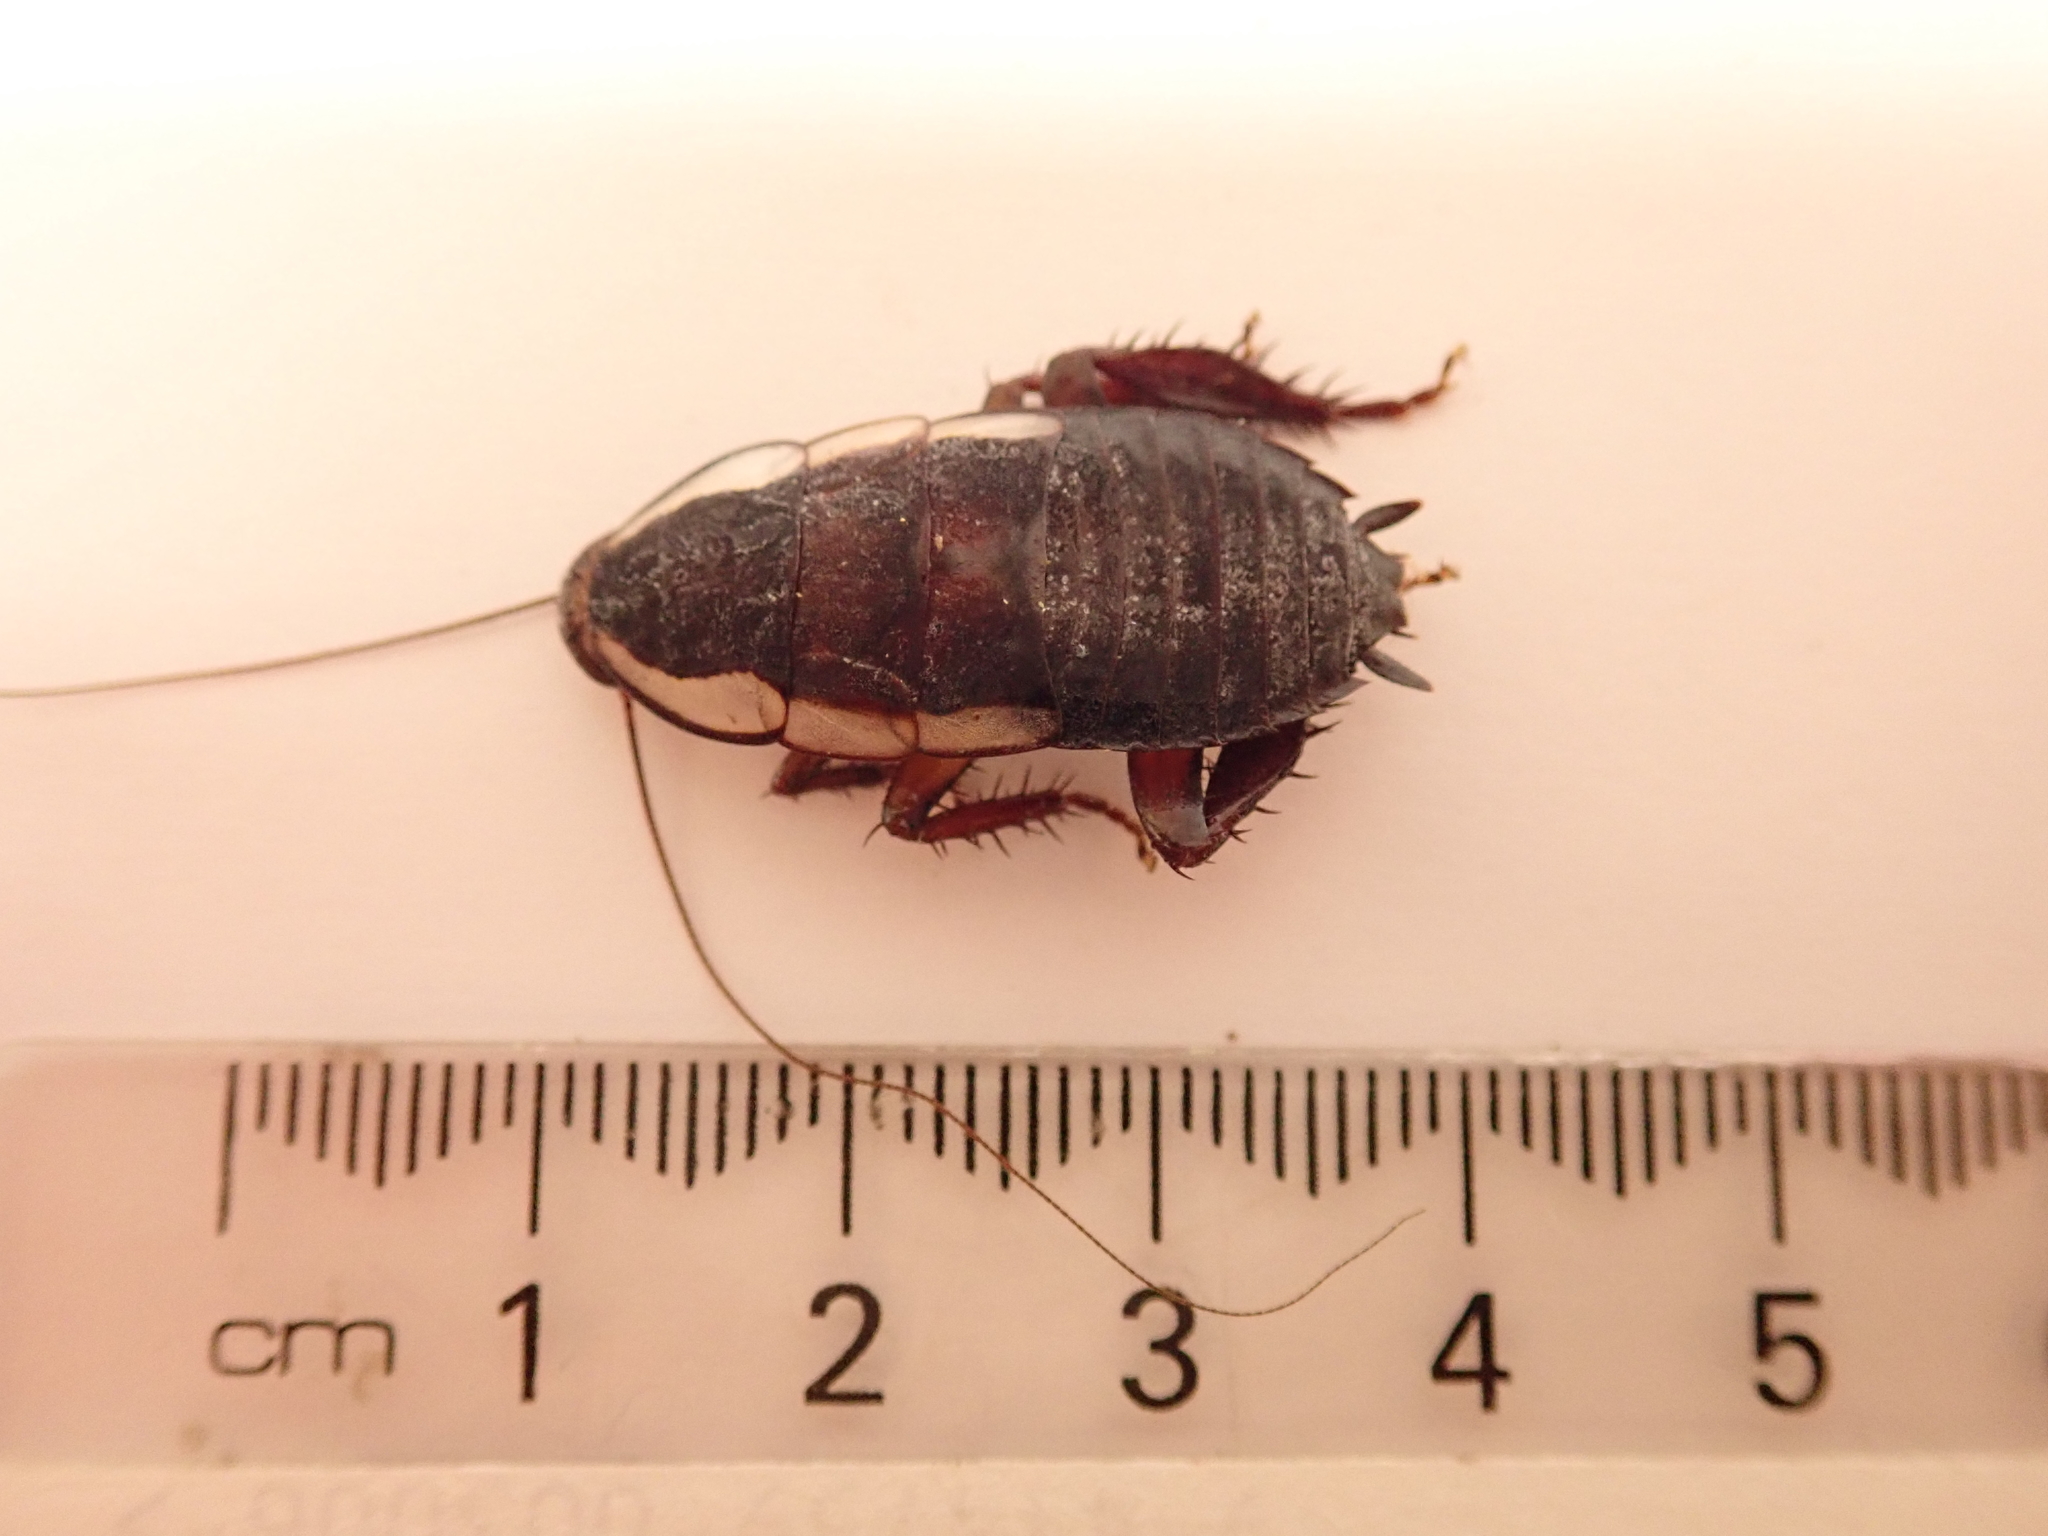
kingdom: Animalia
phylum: Arthropoda
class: Insecta
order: Blattodea
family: Blattidae
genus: Drymaplaneta
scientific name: Drymaplaneta semivitta
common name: Gisborne cockroach
